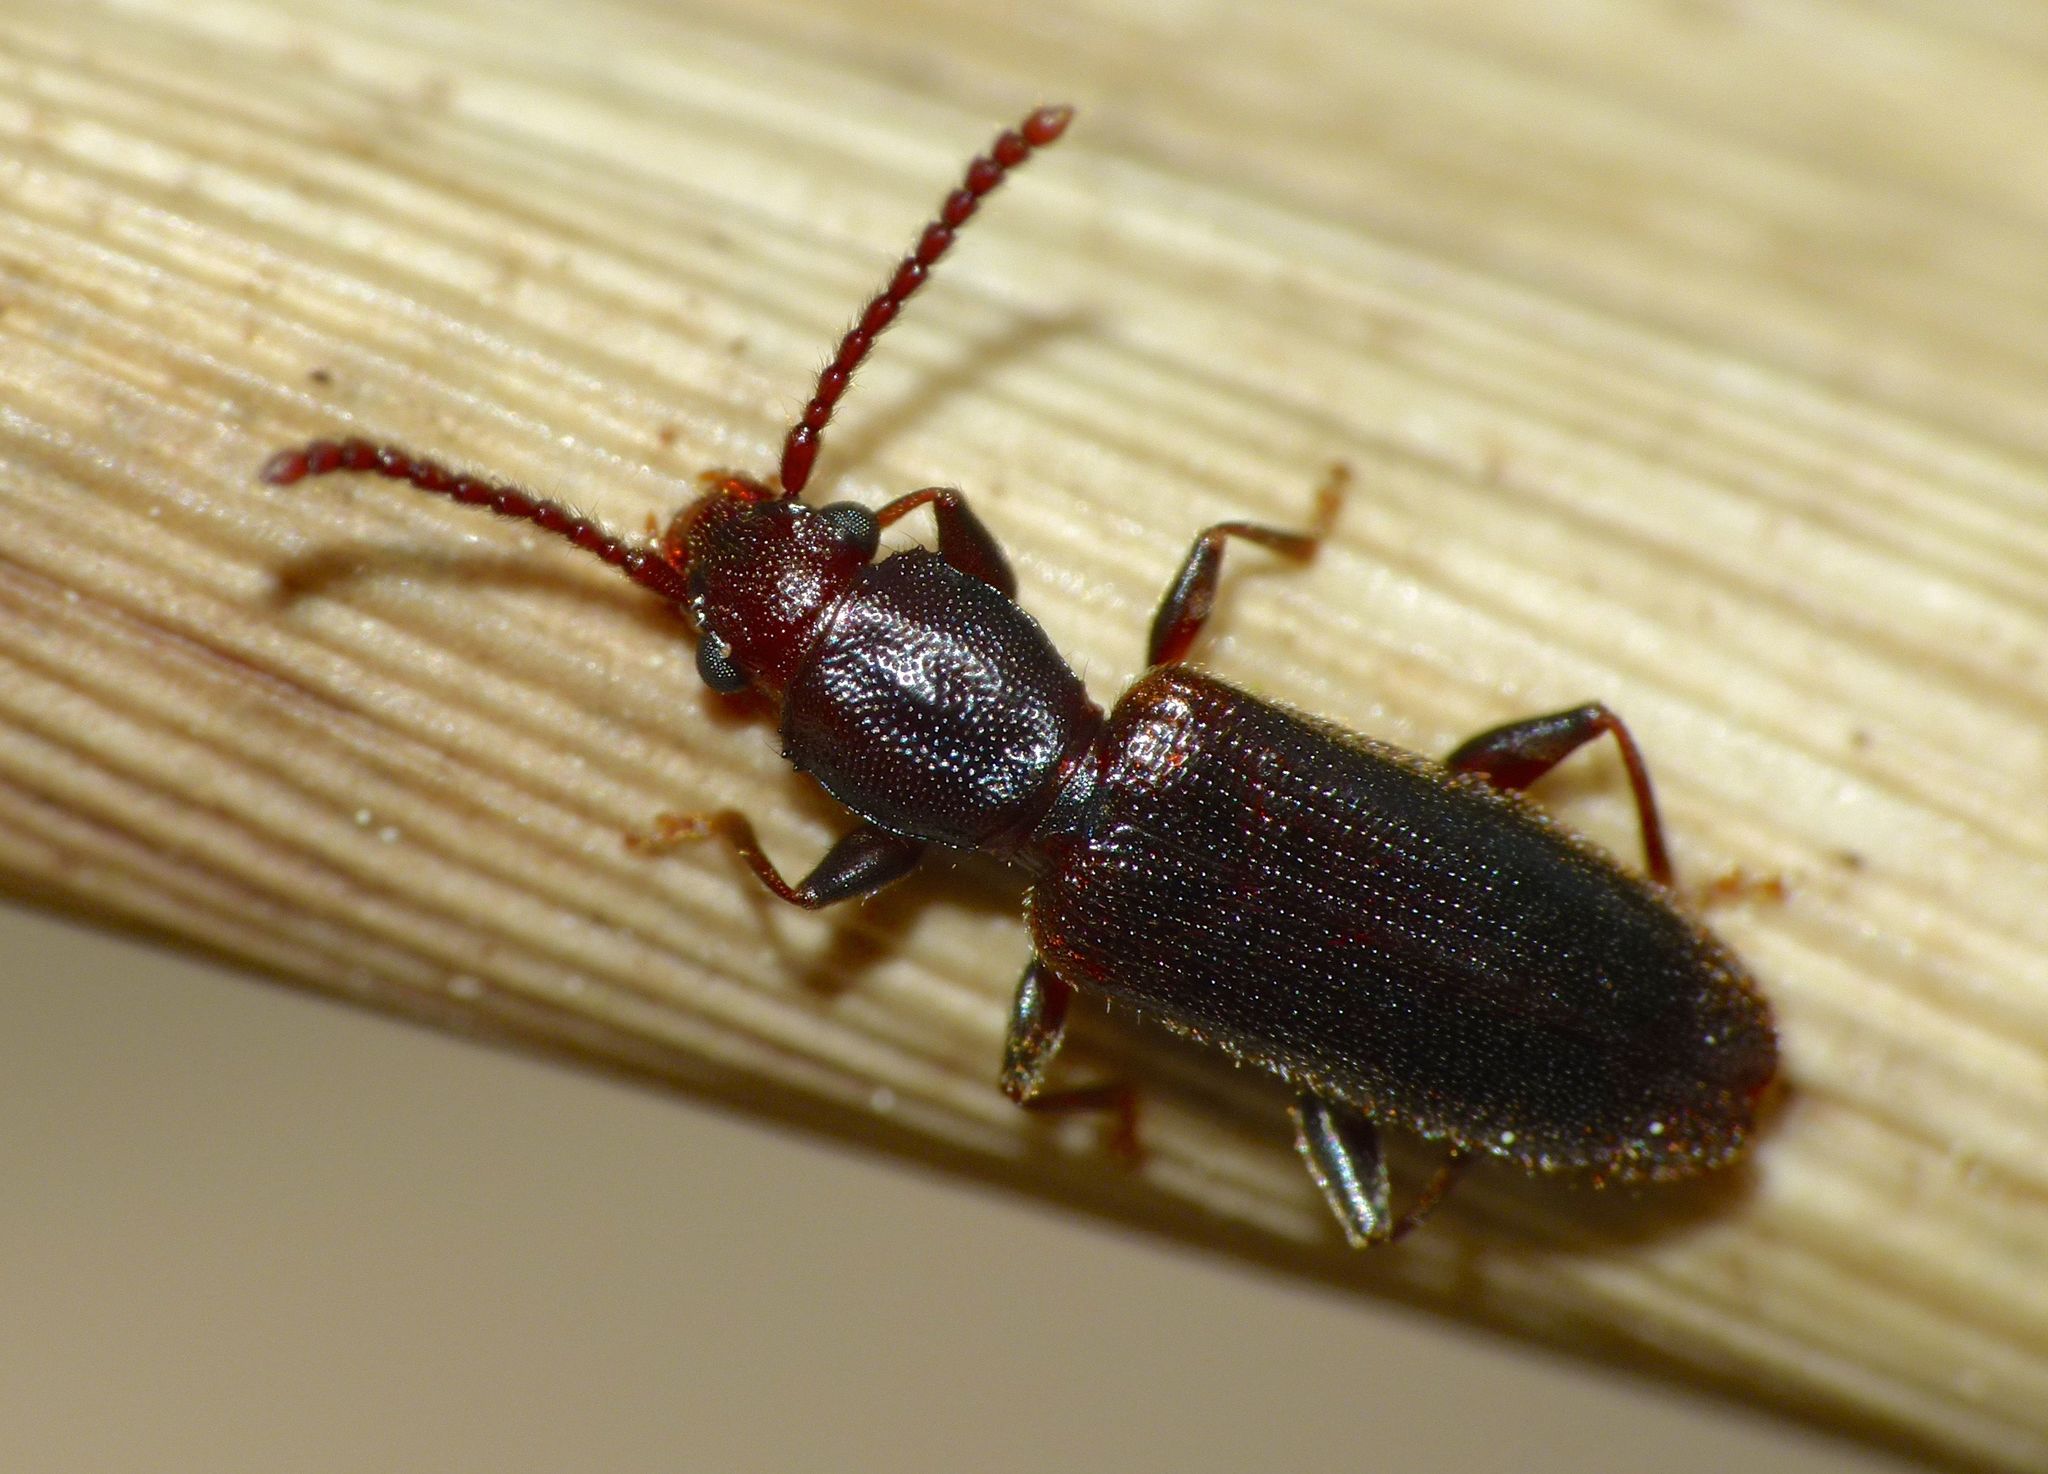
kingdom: Animalia
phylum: Arthropoda
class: Insecta
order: Coleoptera
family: Silvanidae
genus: Cryptamorpha
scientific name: Cryptamorpha brevicornis
